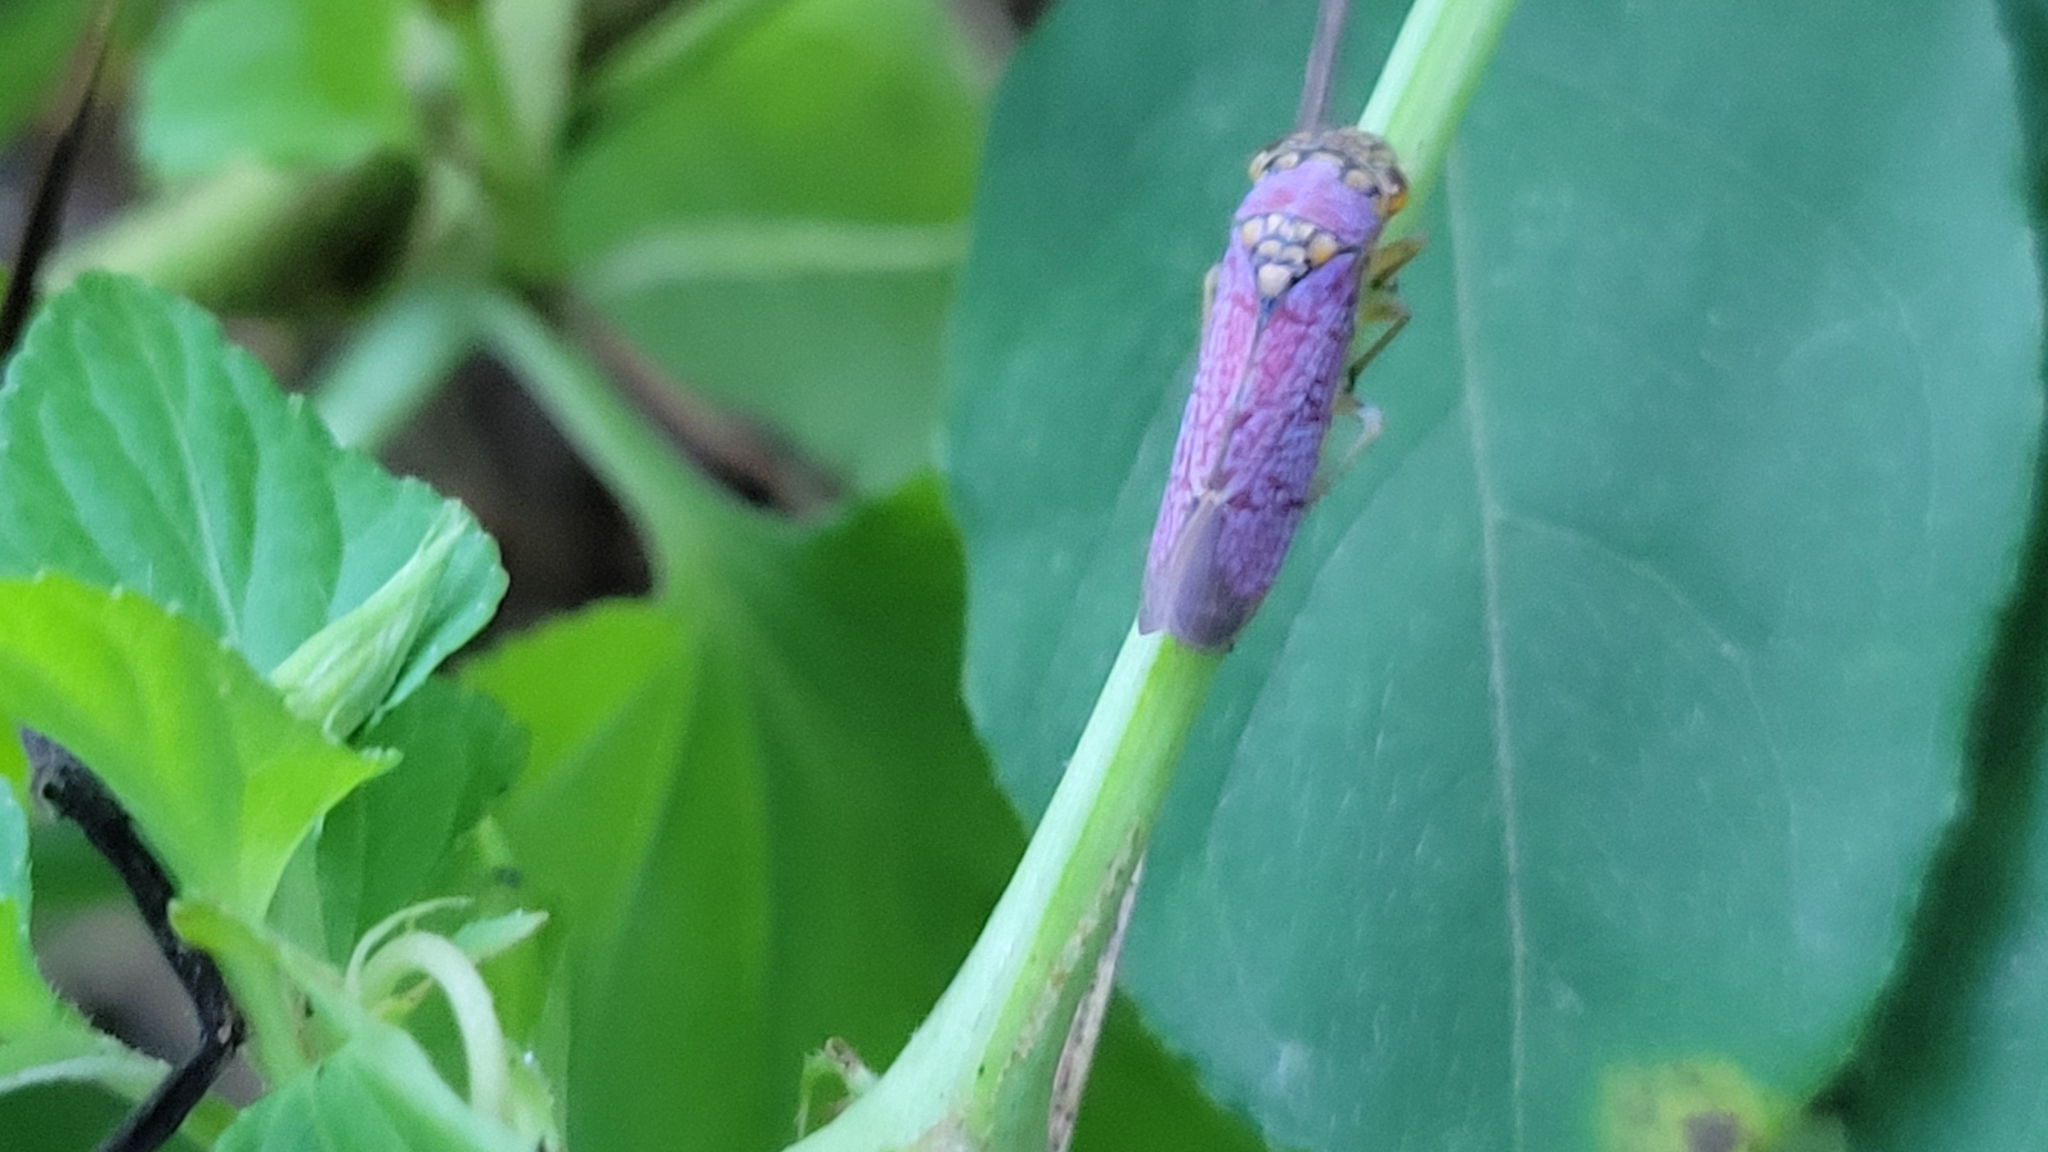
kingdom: Animalia
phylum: Arthropoda
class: Insecta
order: Hemiptera
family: Cicadellidae
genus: Oncometopia
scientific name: Oncometopia orbona
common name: Broad-headed sharpshooter
